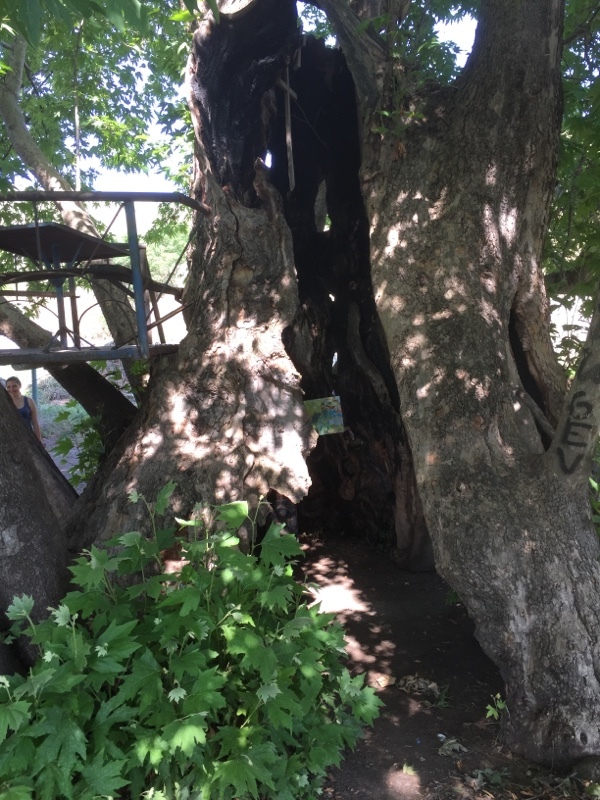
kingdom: Plantae
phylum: Tracheophyta
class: Magnoliopsida
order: Proteales
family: Platanaceae
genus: Platanus
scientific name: Platanus orientalis
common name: Oriental plane
